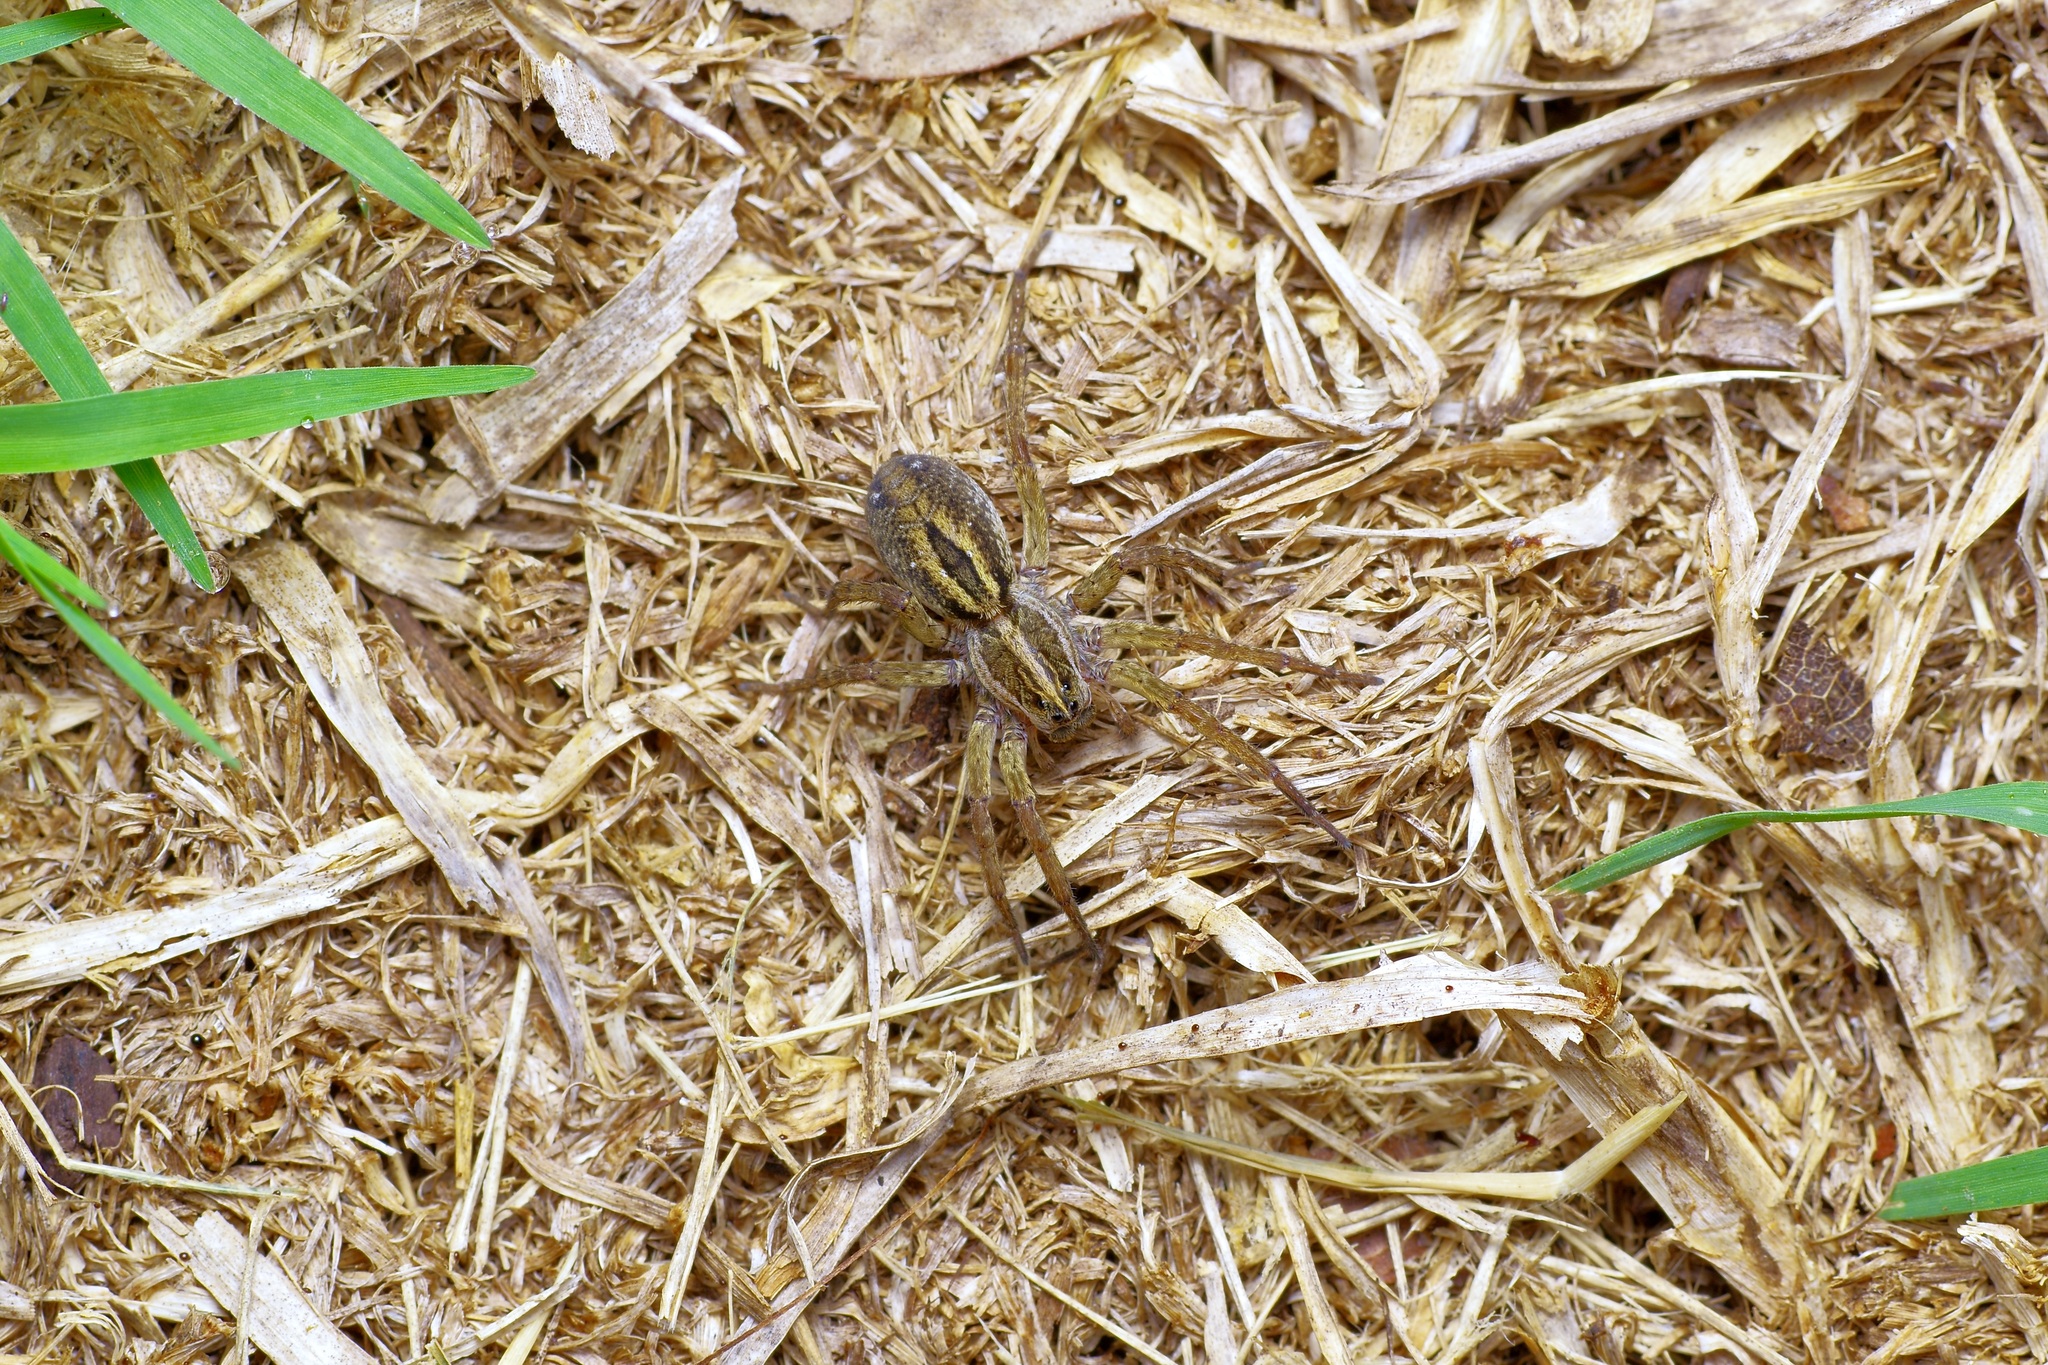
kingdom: Animalia
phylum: Arthropoda
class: Arachnida
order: Araneae
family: Lycosidae
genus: Tigrosa
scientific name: Tigrosa annexa
